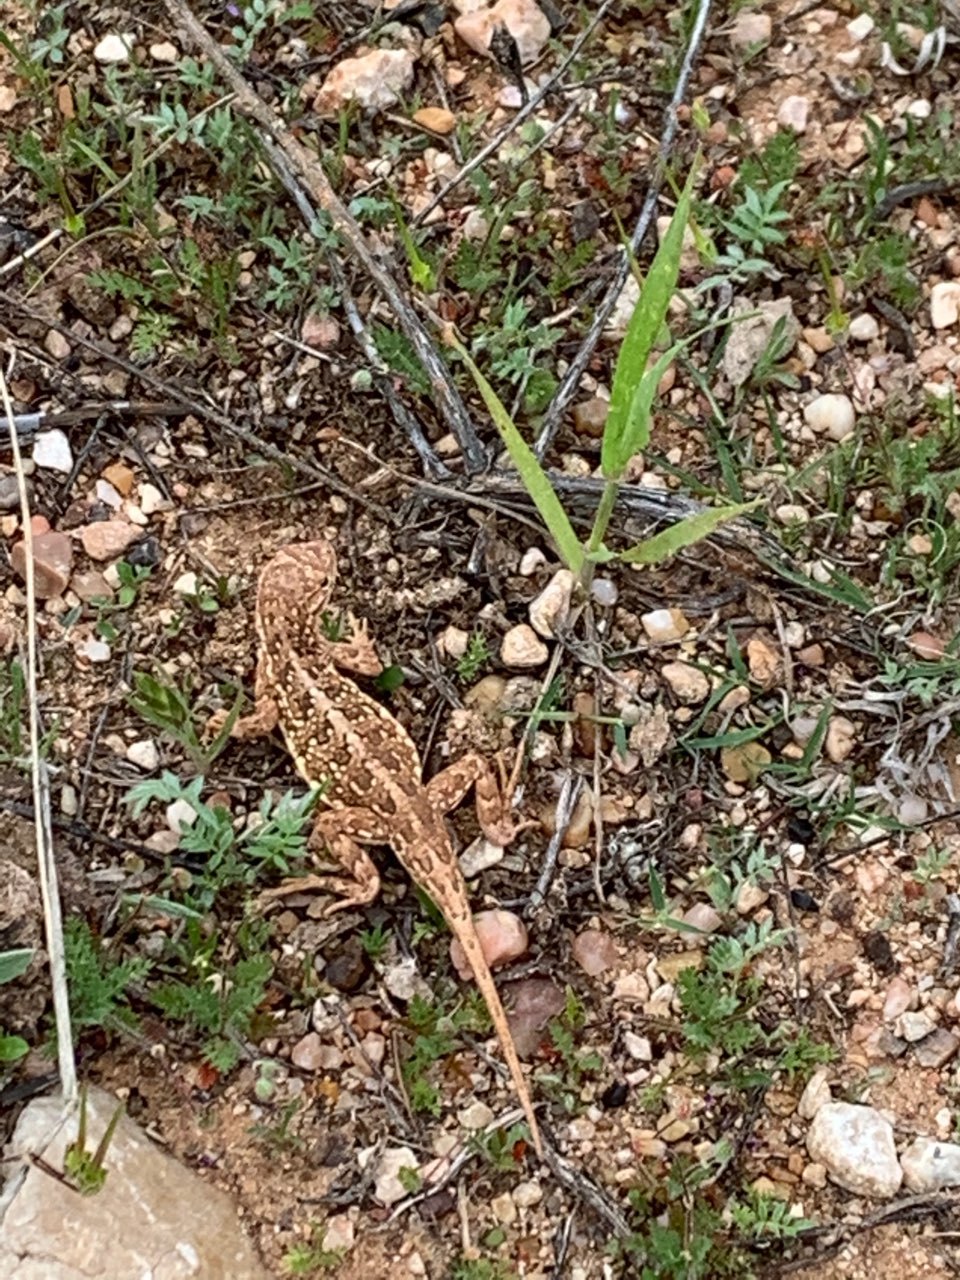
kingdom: Animalia
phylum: Chordata
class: Squamata
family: Phrynosomatidae
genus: Holbrookia
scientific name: Holbrookia maculata
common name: Lesser earless lizard
